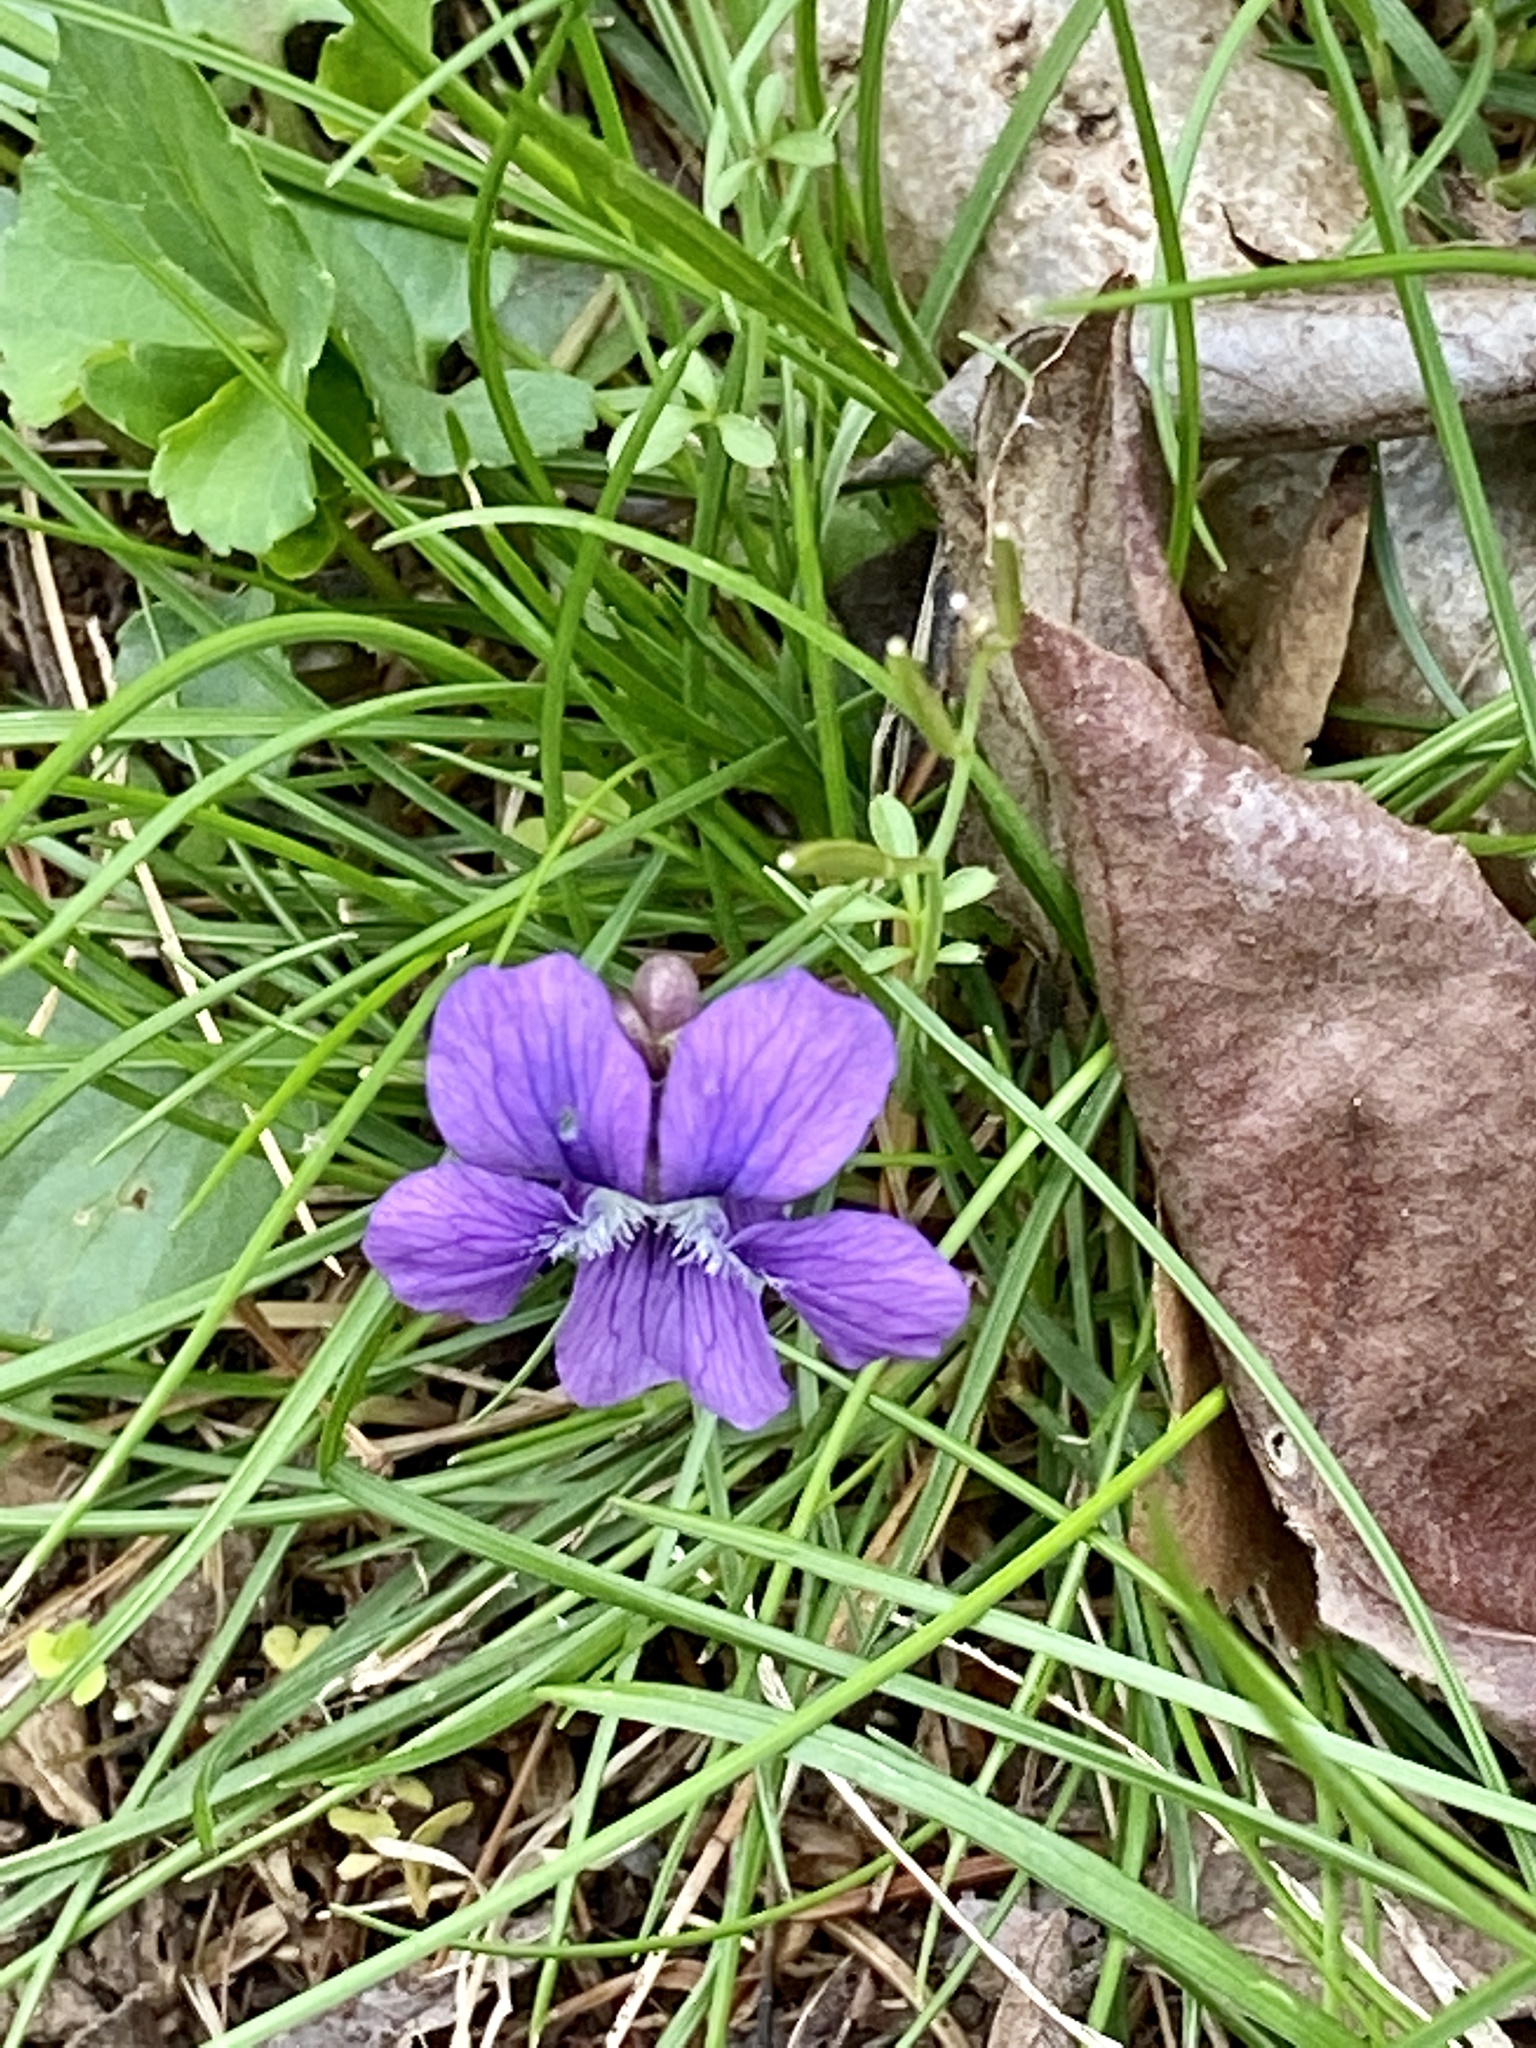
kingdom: Plantae
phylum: Tracheophyta
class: Magnoliopsida
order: Malpighiales
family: Violaceae
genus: Viola
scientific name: Viola sororia
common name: Dooryard violet
